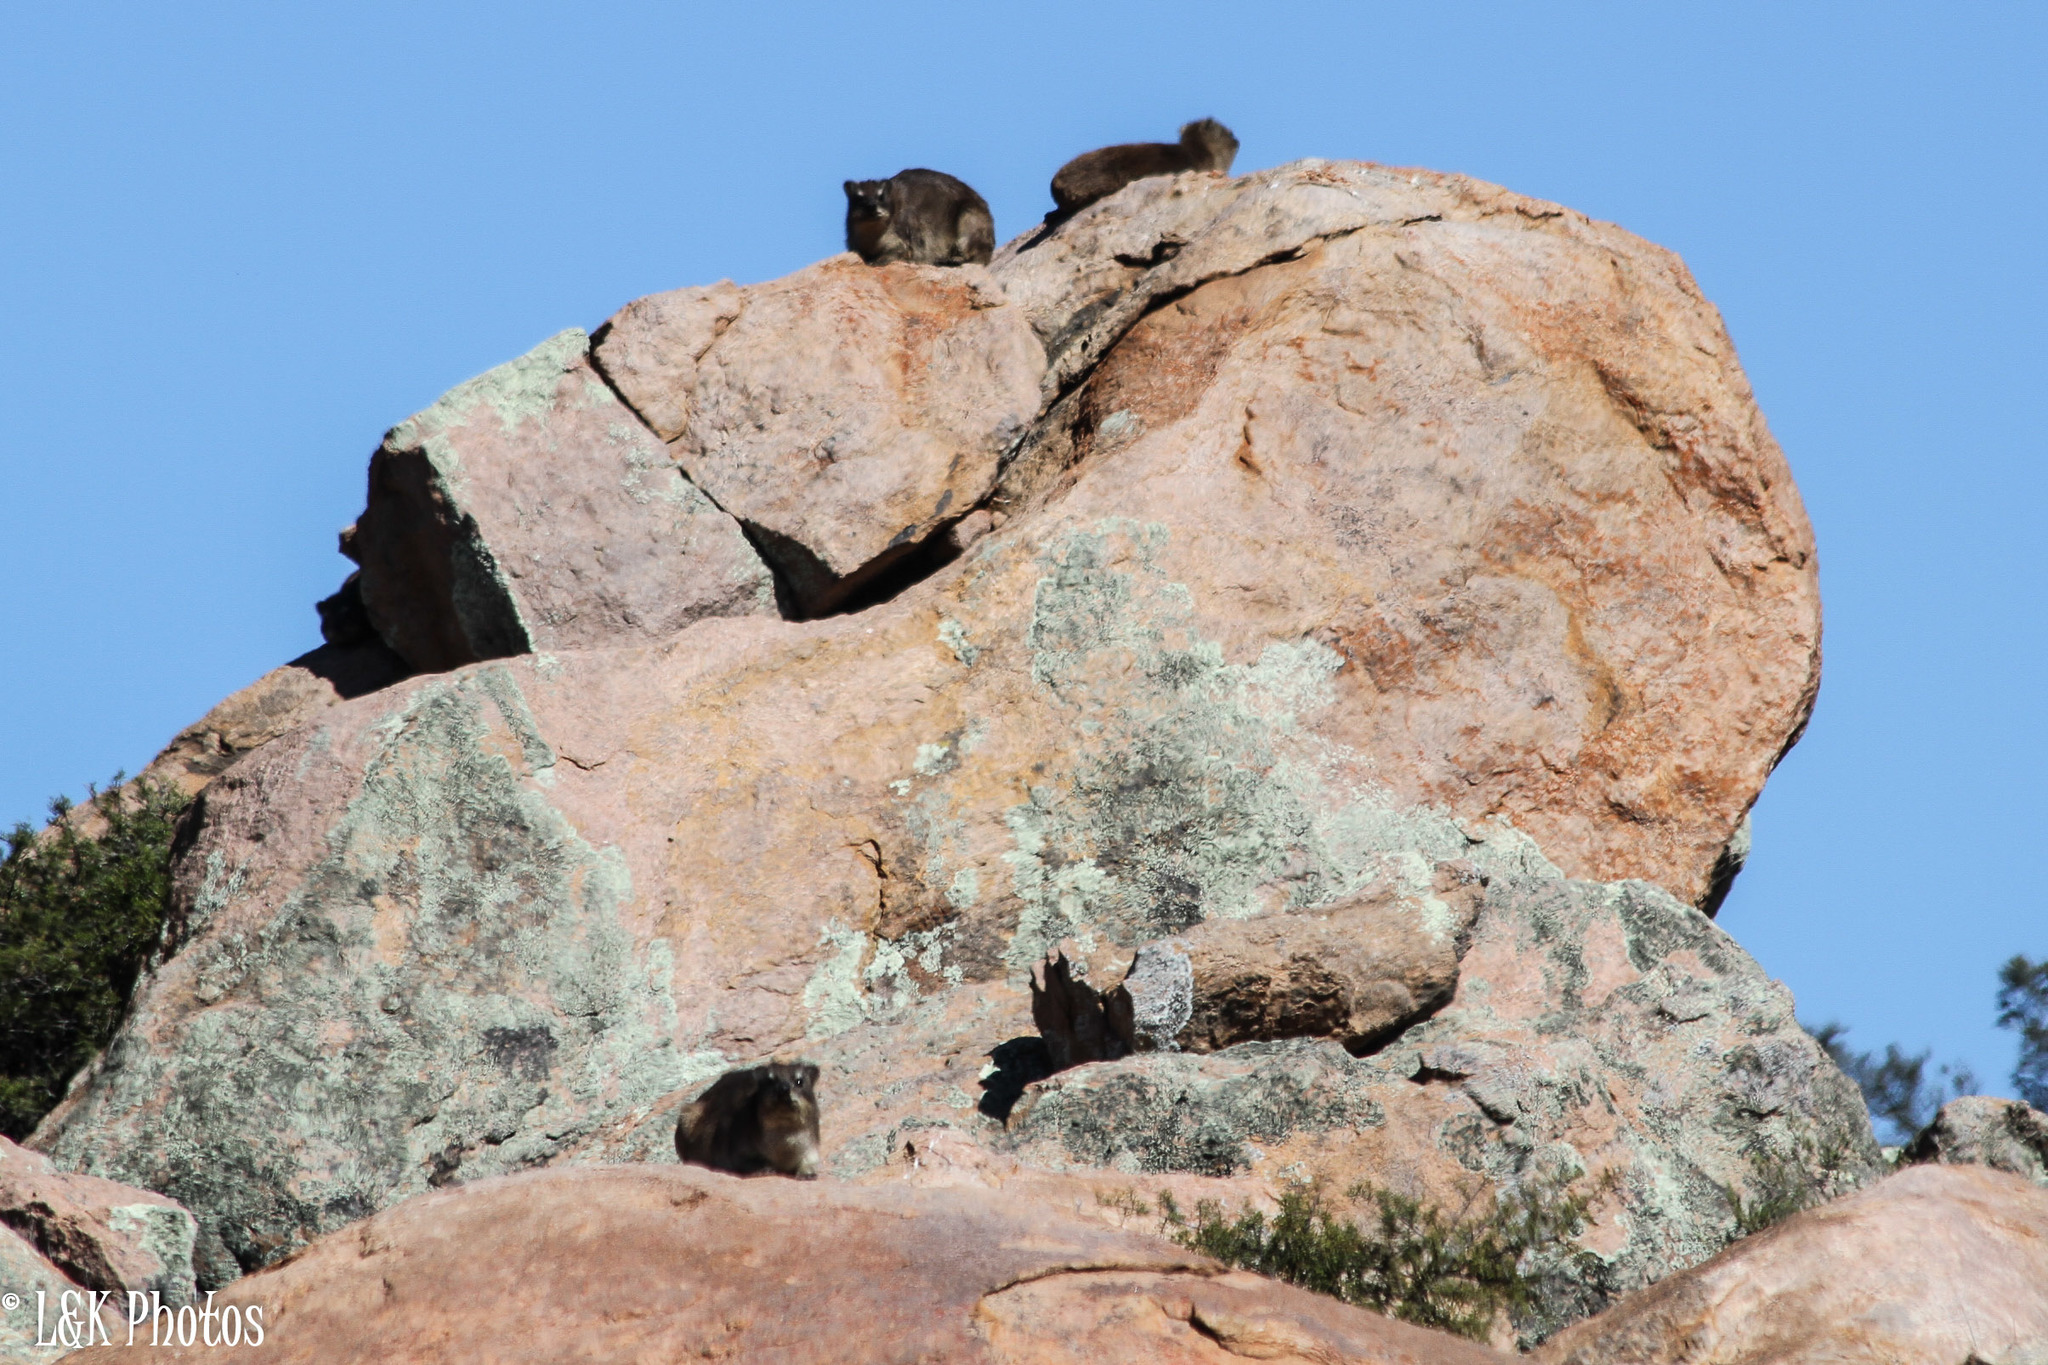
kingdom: Animalia
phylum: Chordata
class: Mammalia
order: Hyracoidea
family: Procaviidae
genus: Procavia
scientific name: Procavia capensis
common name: Rock hyrax
